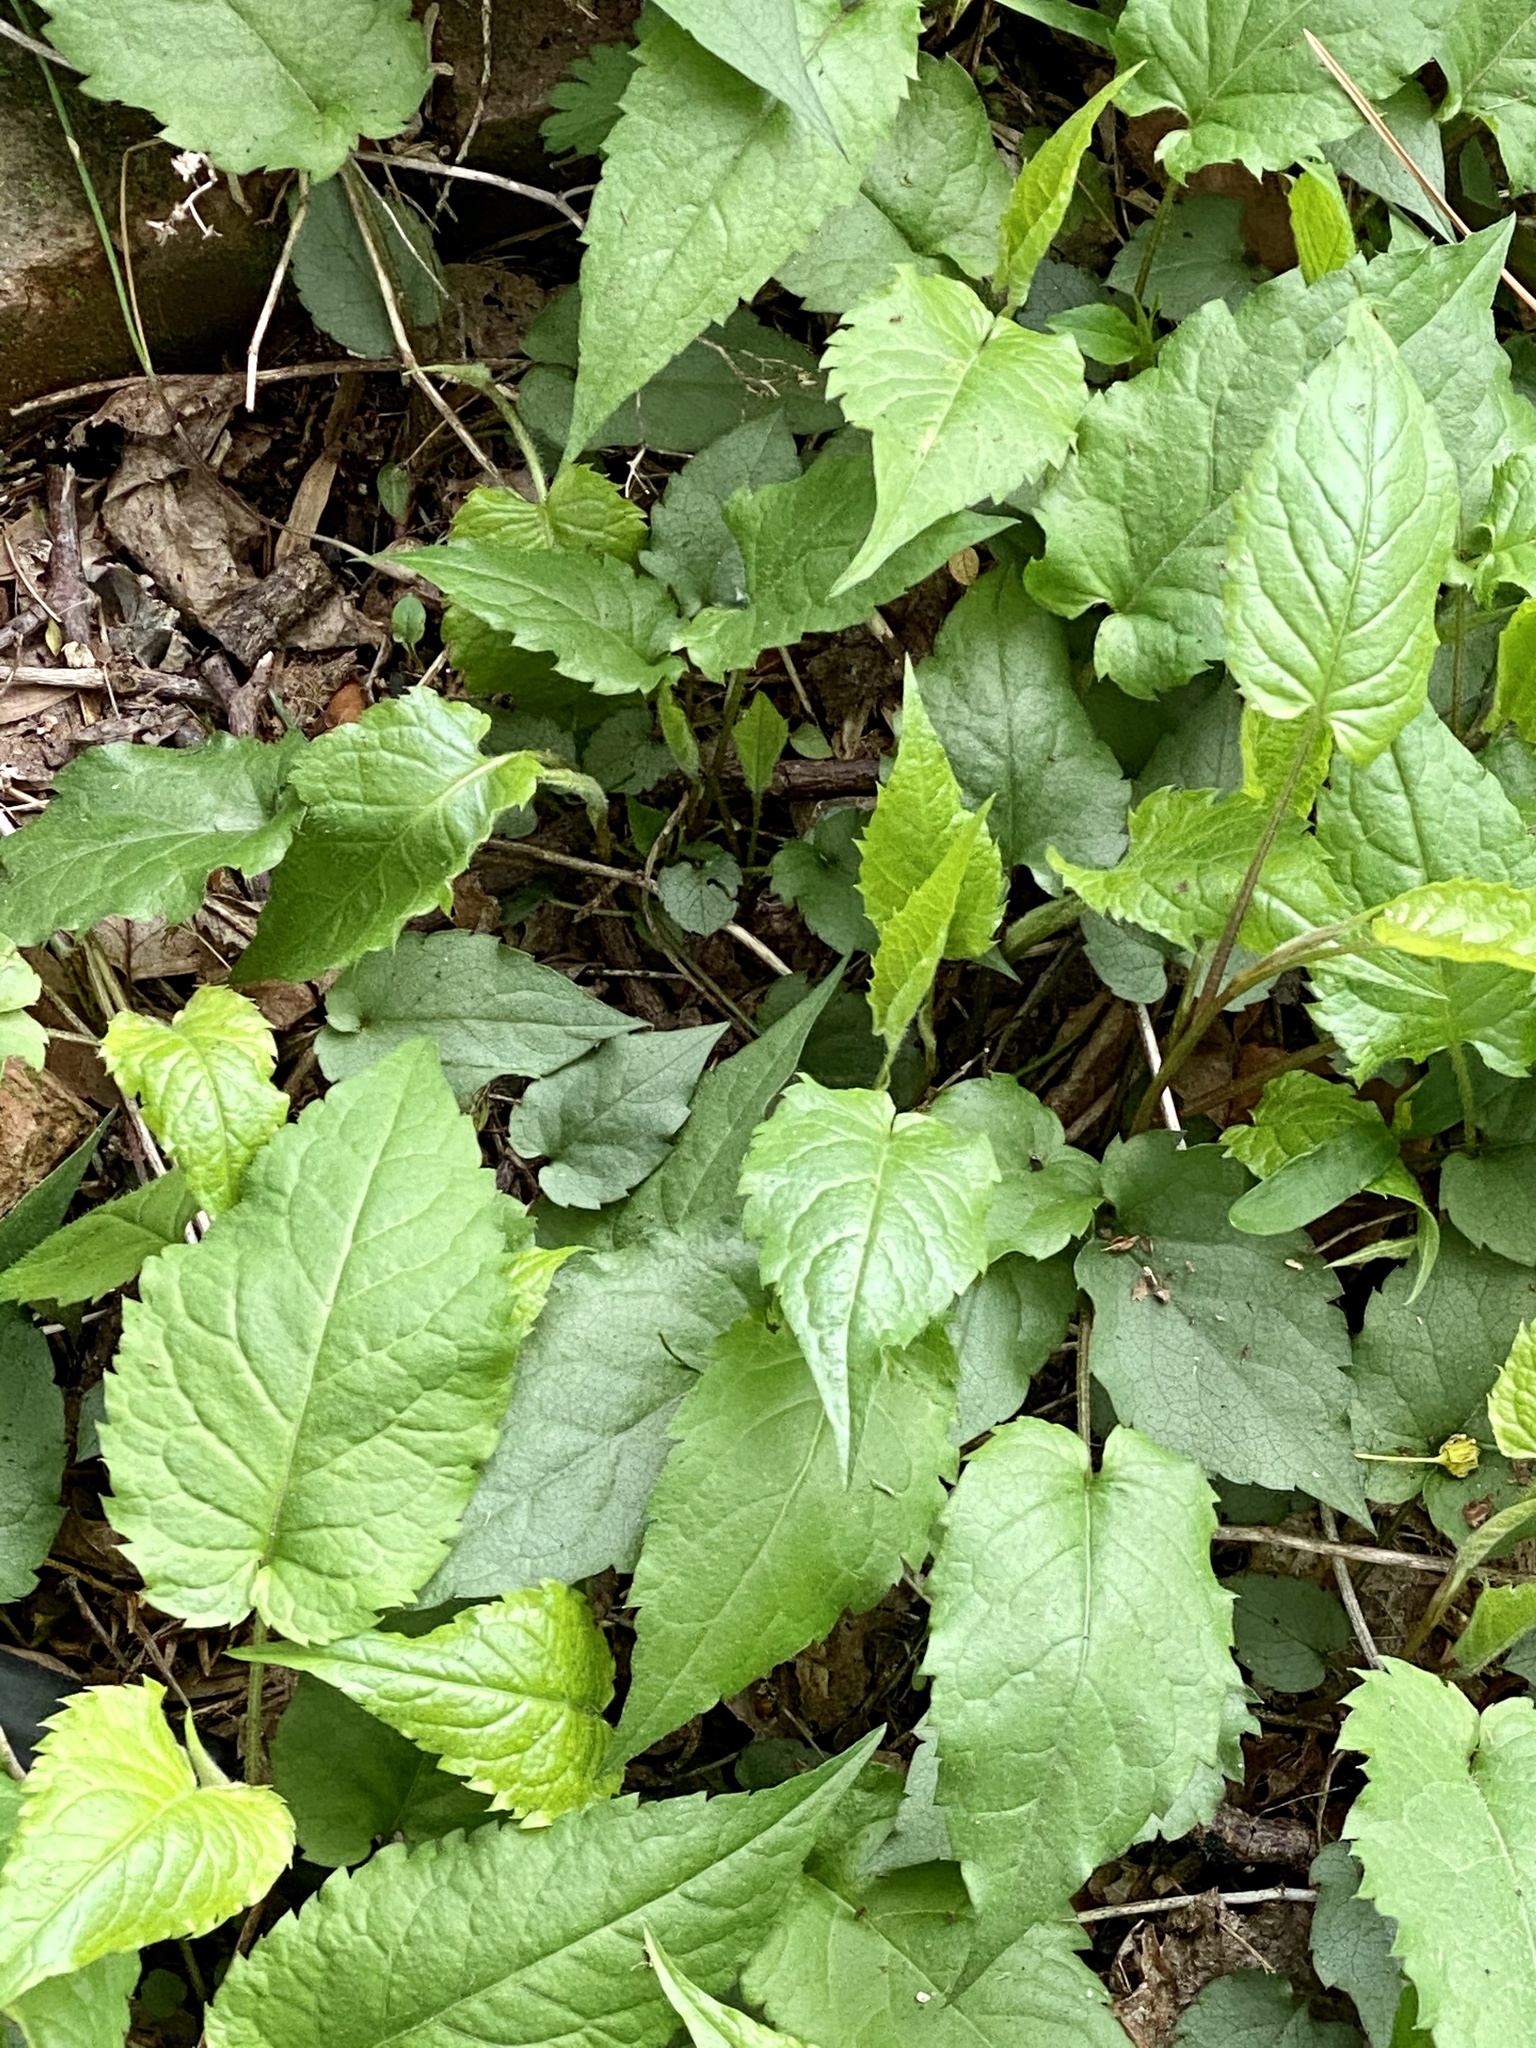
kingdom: Plantae
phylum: Tracheophyta
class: Magnoliopsida
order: Asterales
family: Asteraceae
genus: Eurybia
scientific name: Eurybia divaricata
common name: White wood aster
